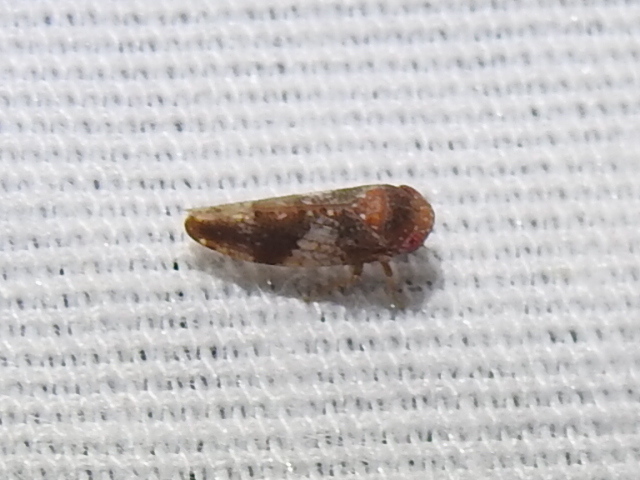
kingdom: Animalia
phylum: Arthropoda
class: Insecta
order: Hemiptera
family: Cicadellidae
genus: Norvellina
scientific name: Norvellina helenae
